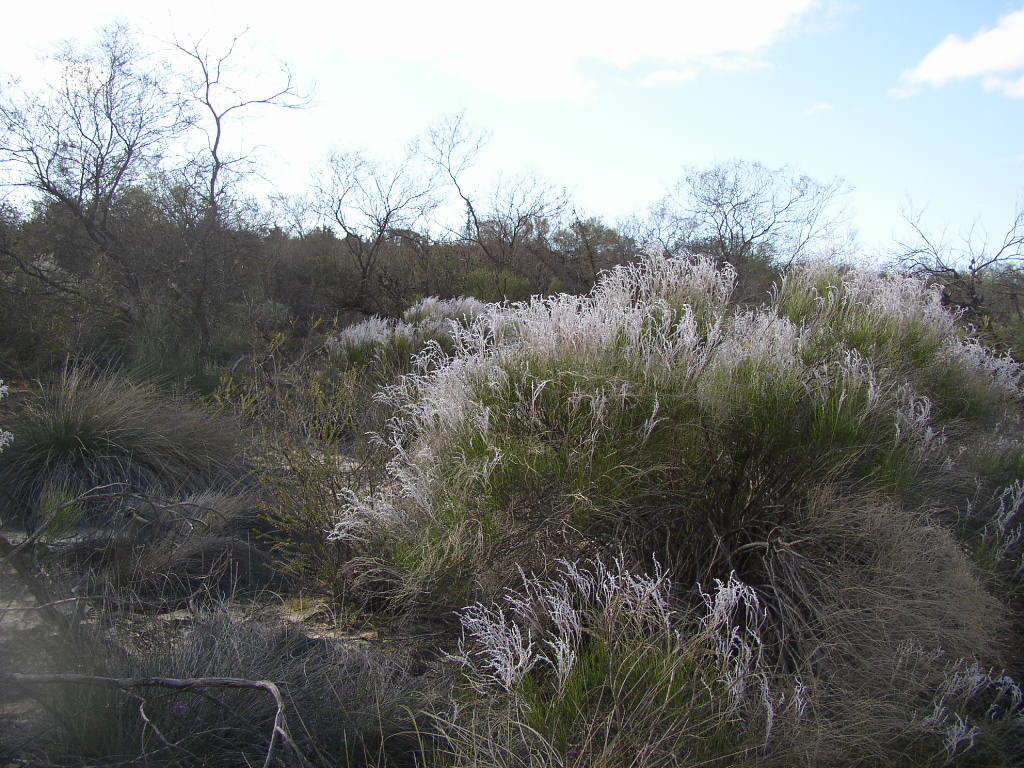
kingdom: Plantae
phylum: Tracheophyta
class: Magnoliopsida
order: Proteales
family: Proteaceae
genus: Conospermum
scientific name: Conospermum incurvum
